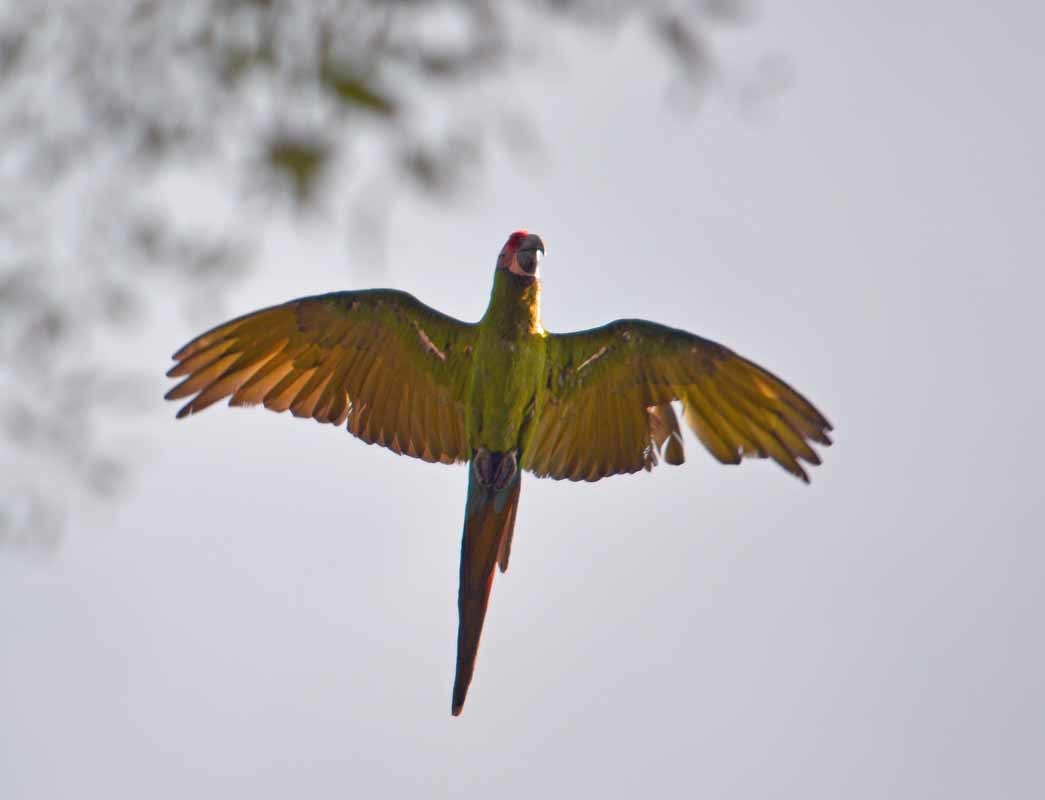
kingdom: Animalia
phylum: Chordata
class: Aves
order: Psittaciformes
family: Psittacidae
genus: Ara
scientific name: Ara militaris
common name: Military macaw
